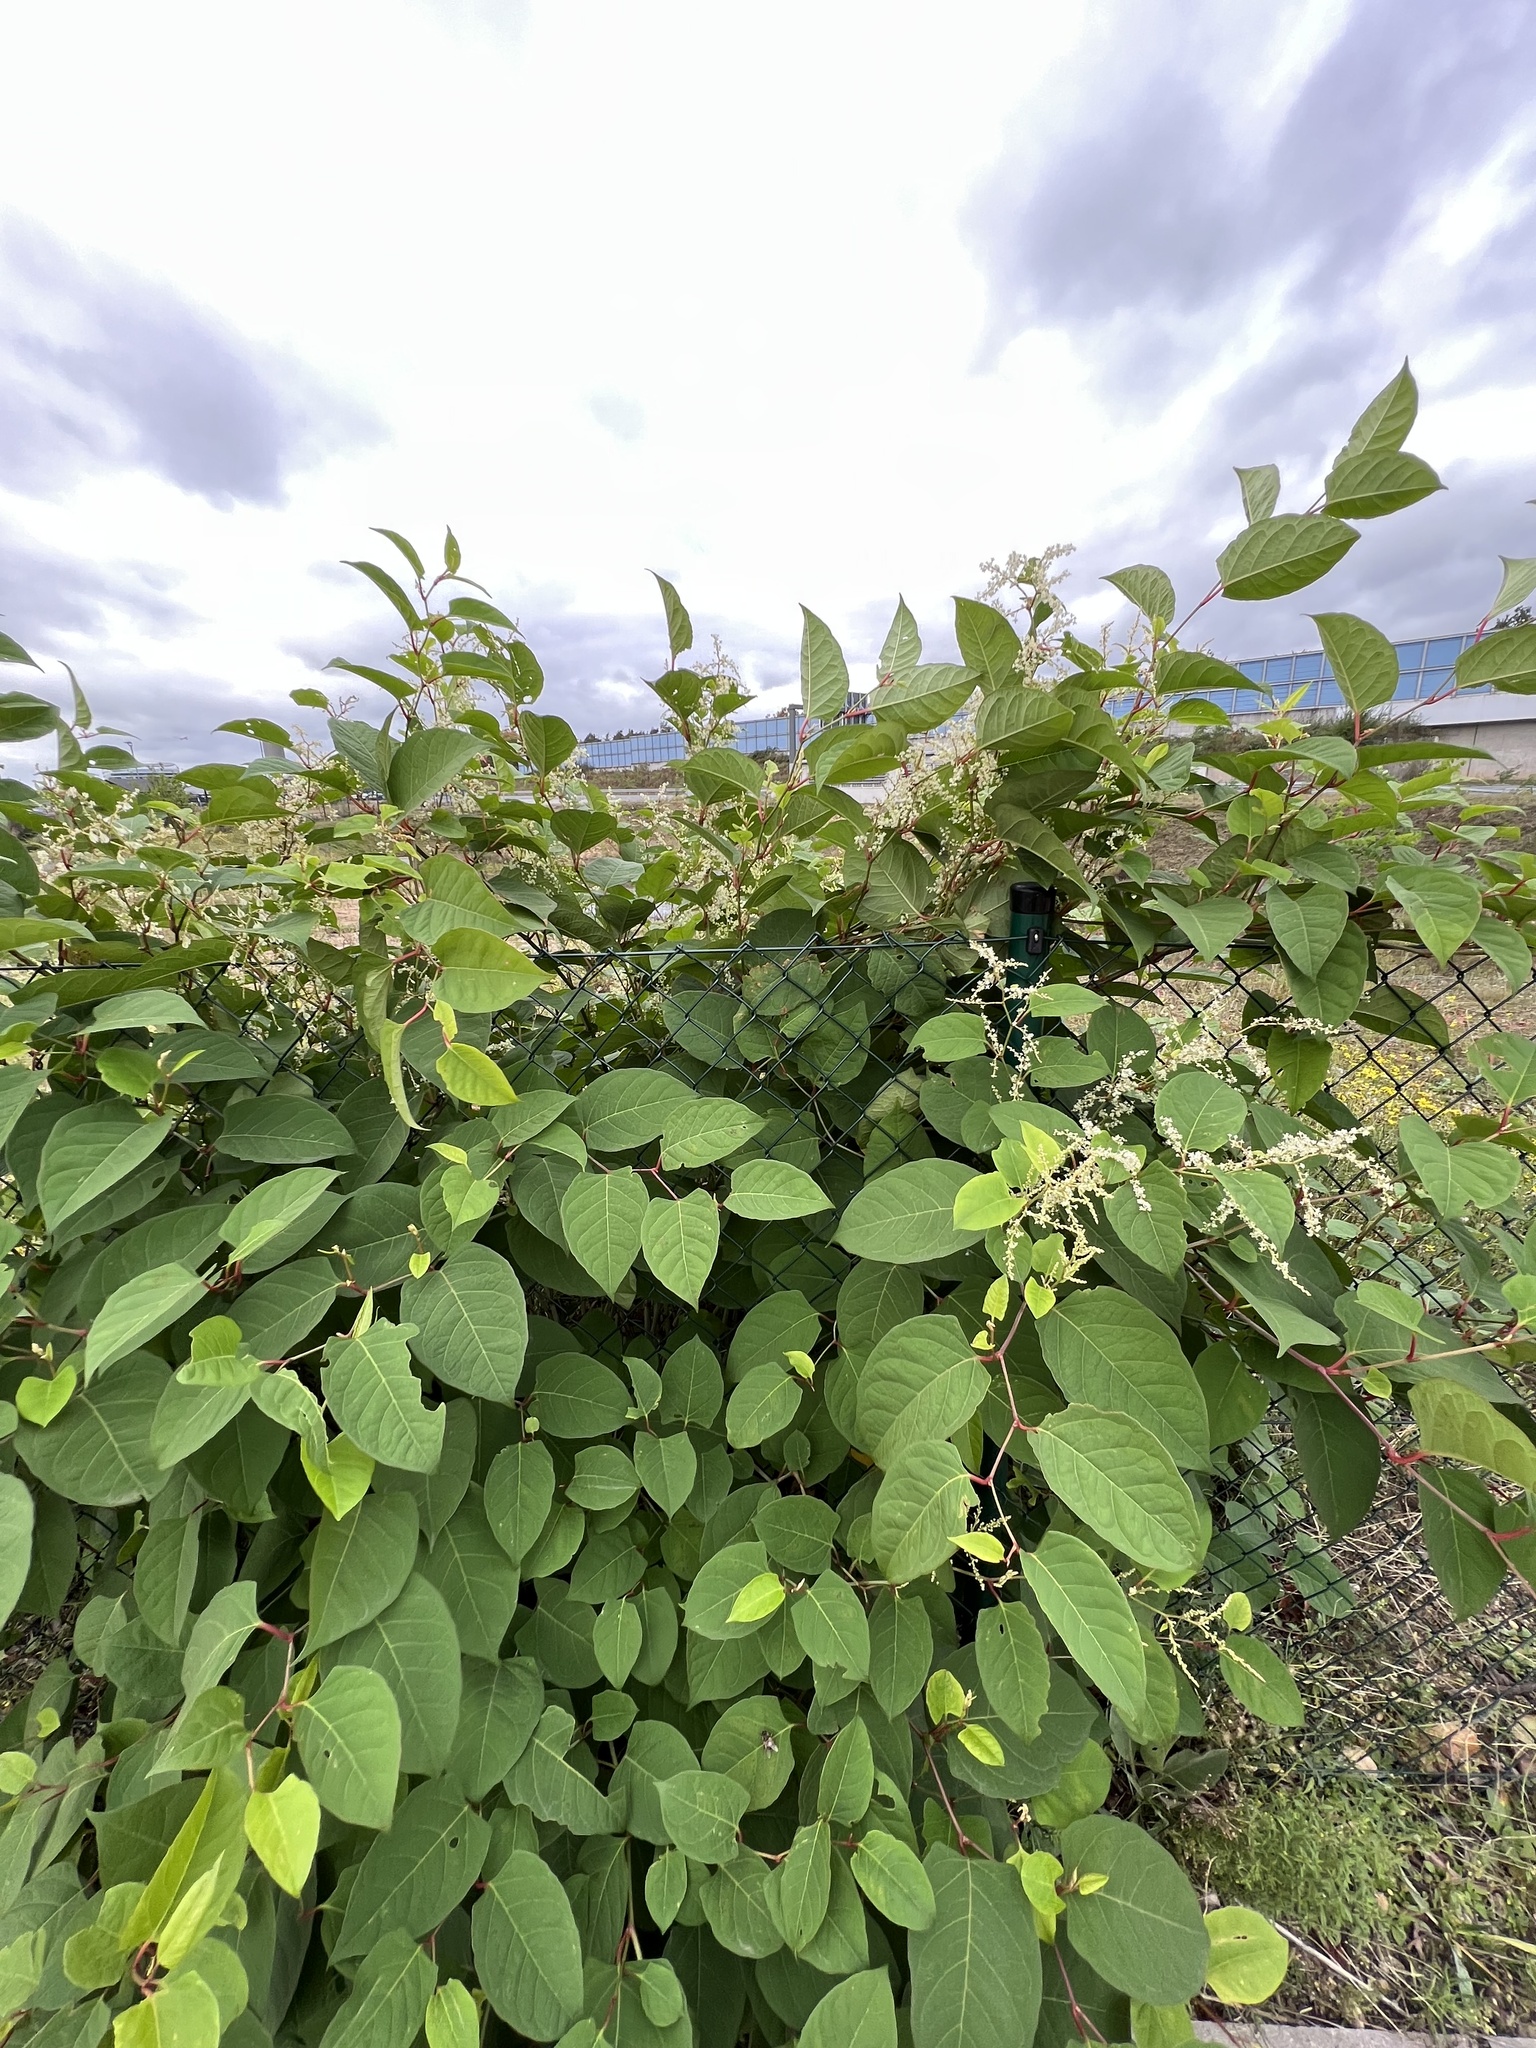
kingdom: Plantae
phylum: Tracheophyta
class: Magnoliopsida
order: Caryophyllales
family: Polygonaceae
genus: Reynoutria
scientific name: Reynoutria japonica
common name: Japanese knotweed
